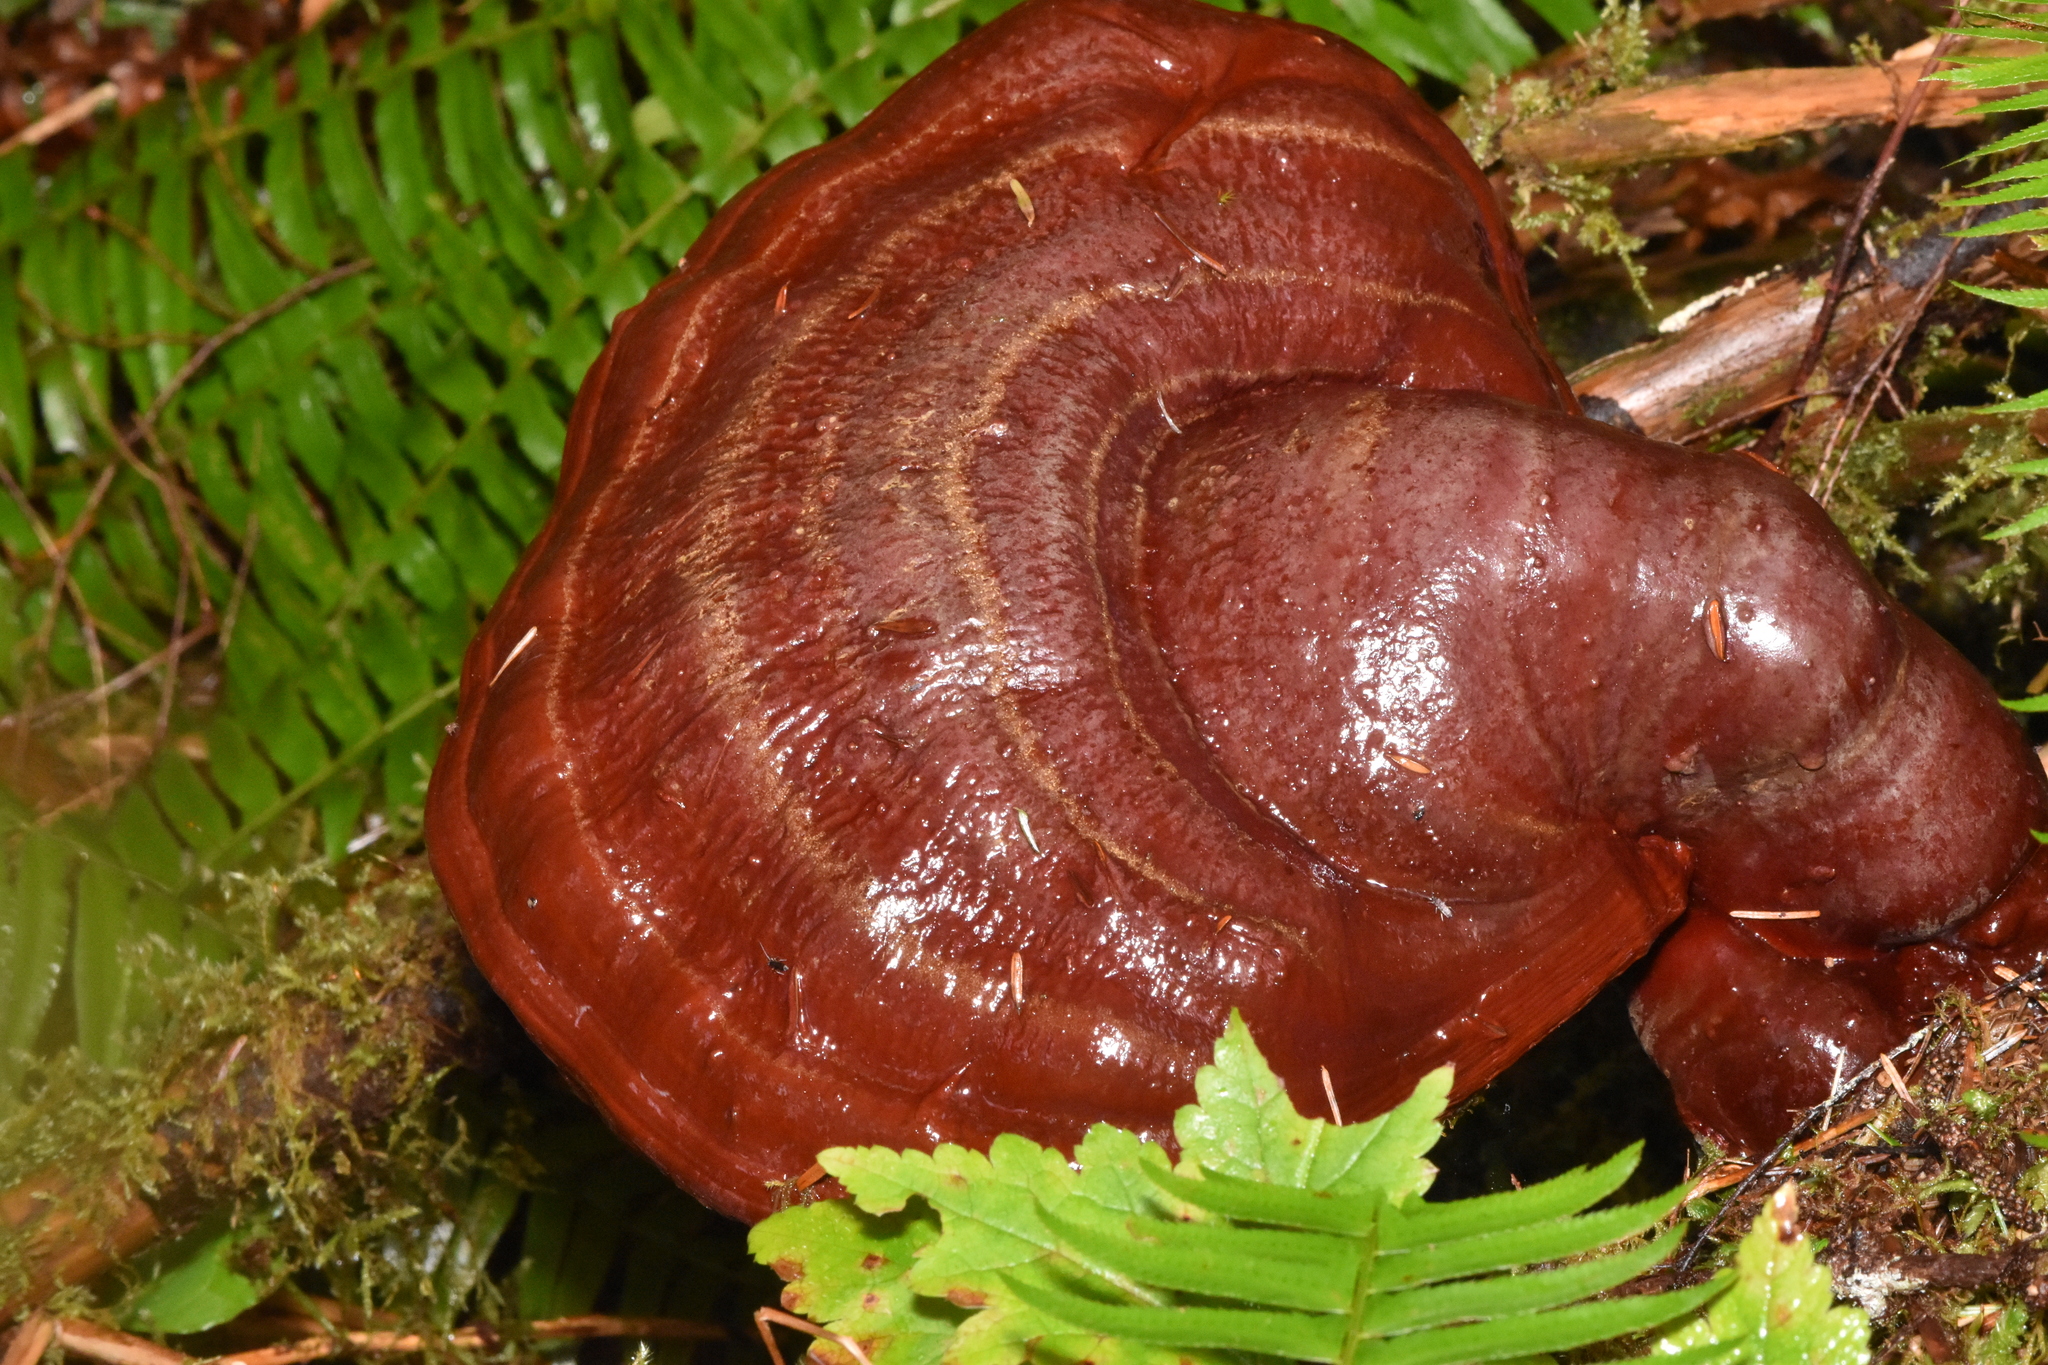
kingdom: Fungi
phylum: Basidiomycota
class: Agaricomycetes
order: Polyporales
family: Polyporaceae
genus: Ganoderma
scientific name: Ganoderma oregonense
